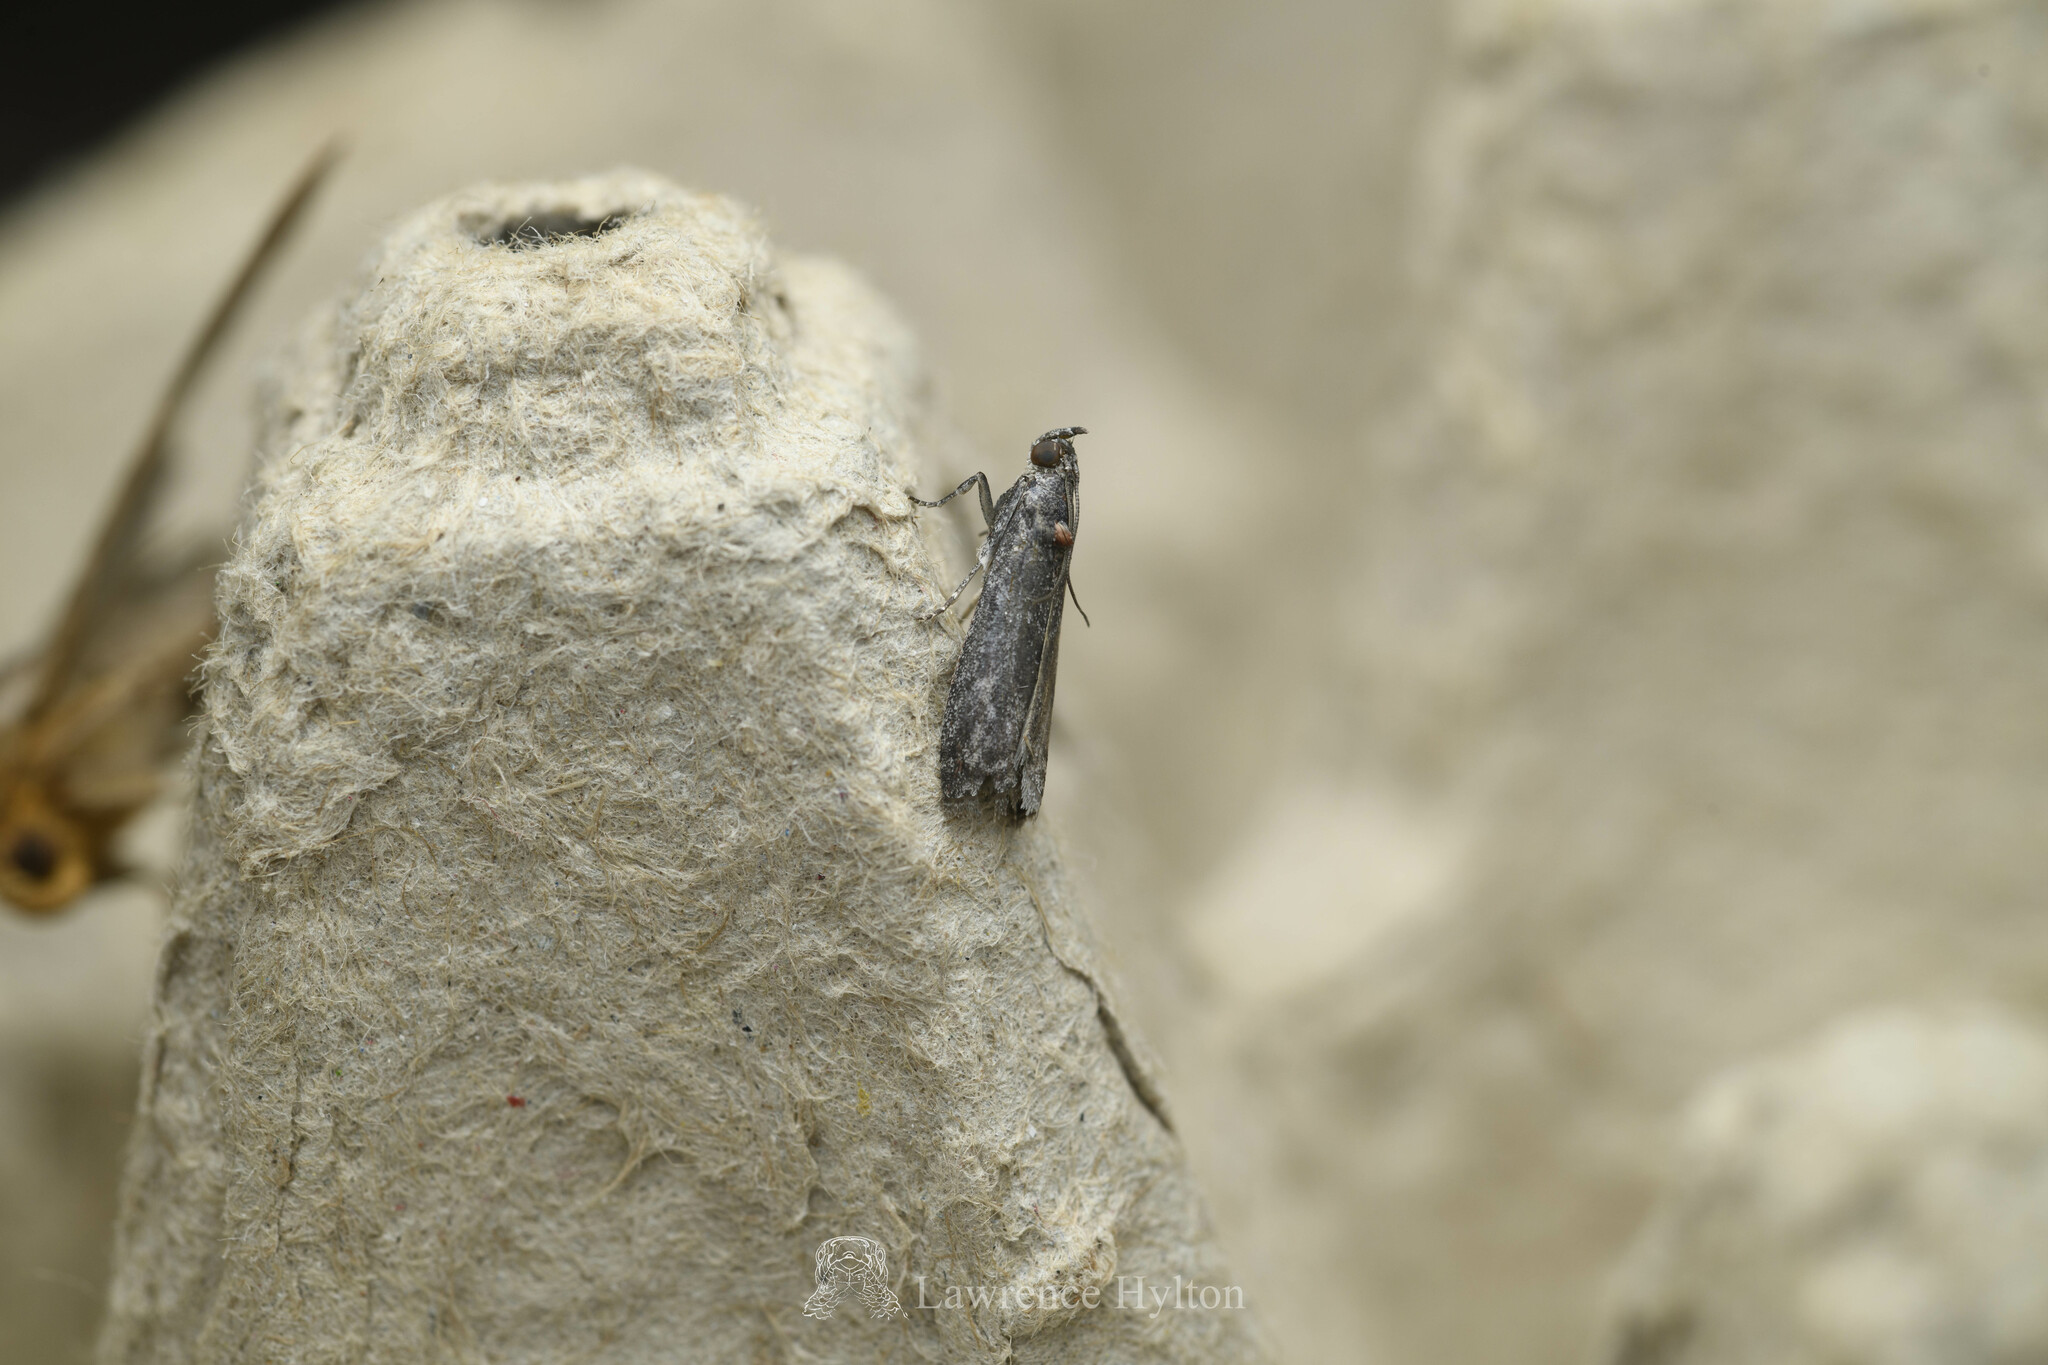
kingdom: Animalia
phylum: Arthropoda
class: Insecta
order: Lepidoptera
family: Pyralidae
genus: Ectomyelois
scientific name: Ectomyelois ceratoniae
